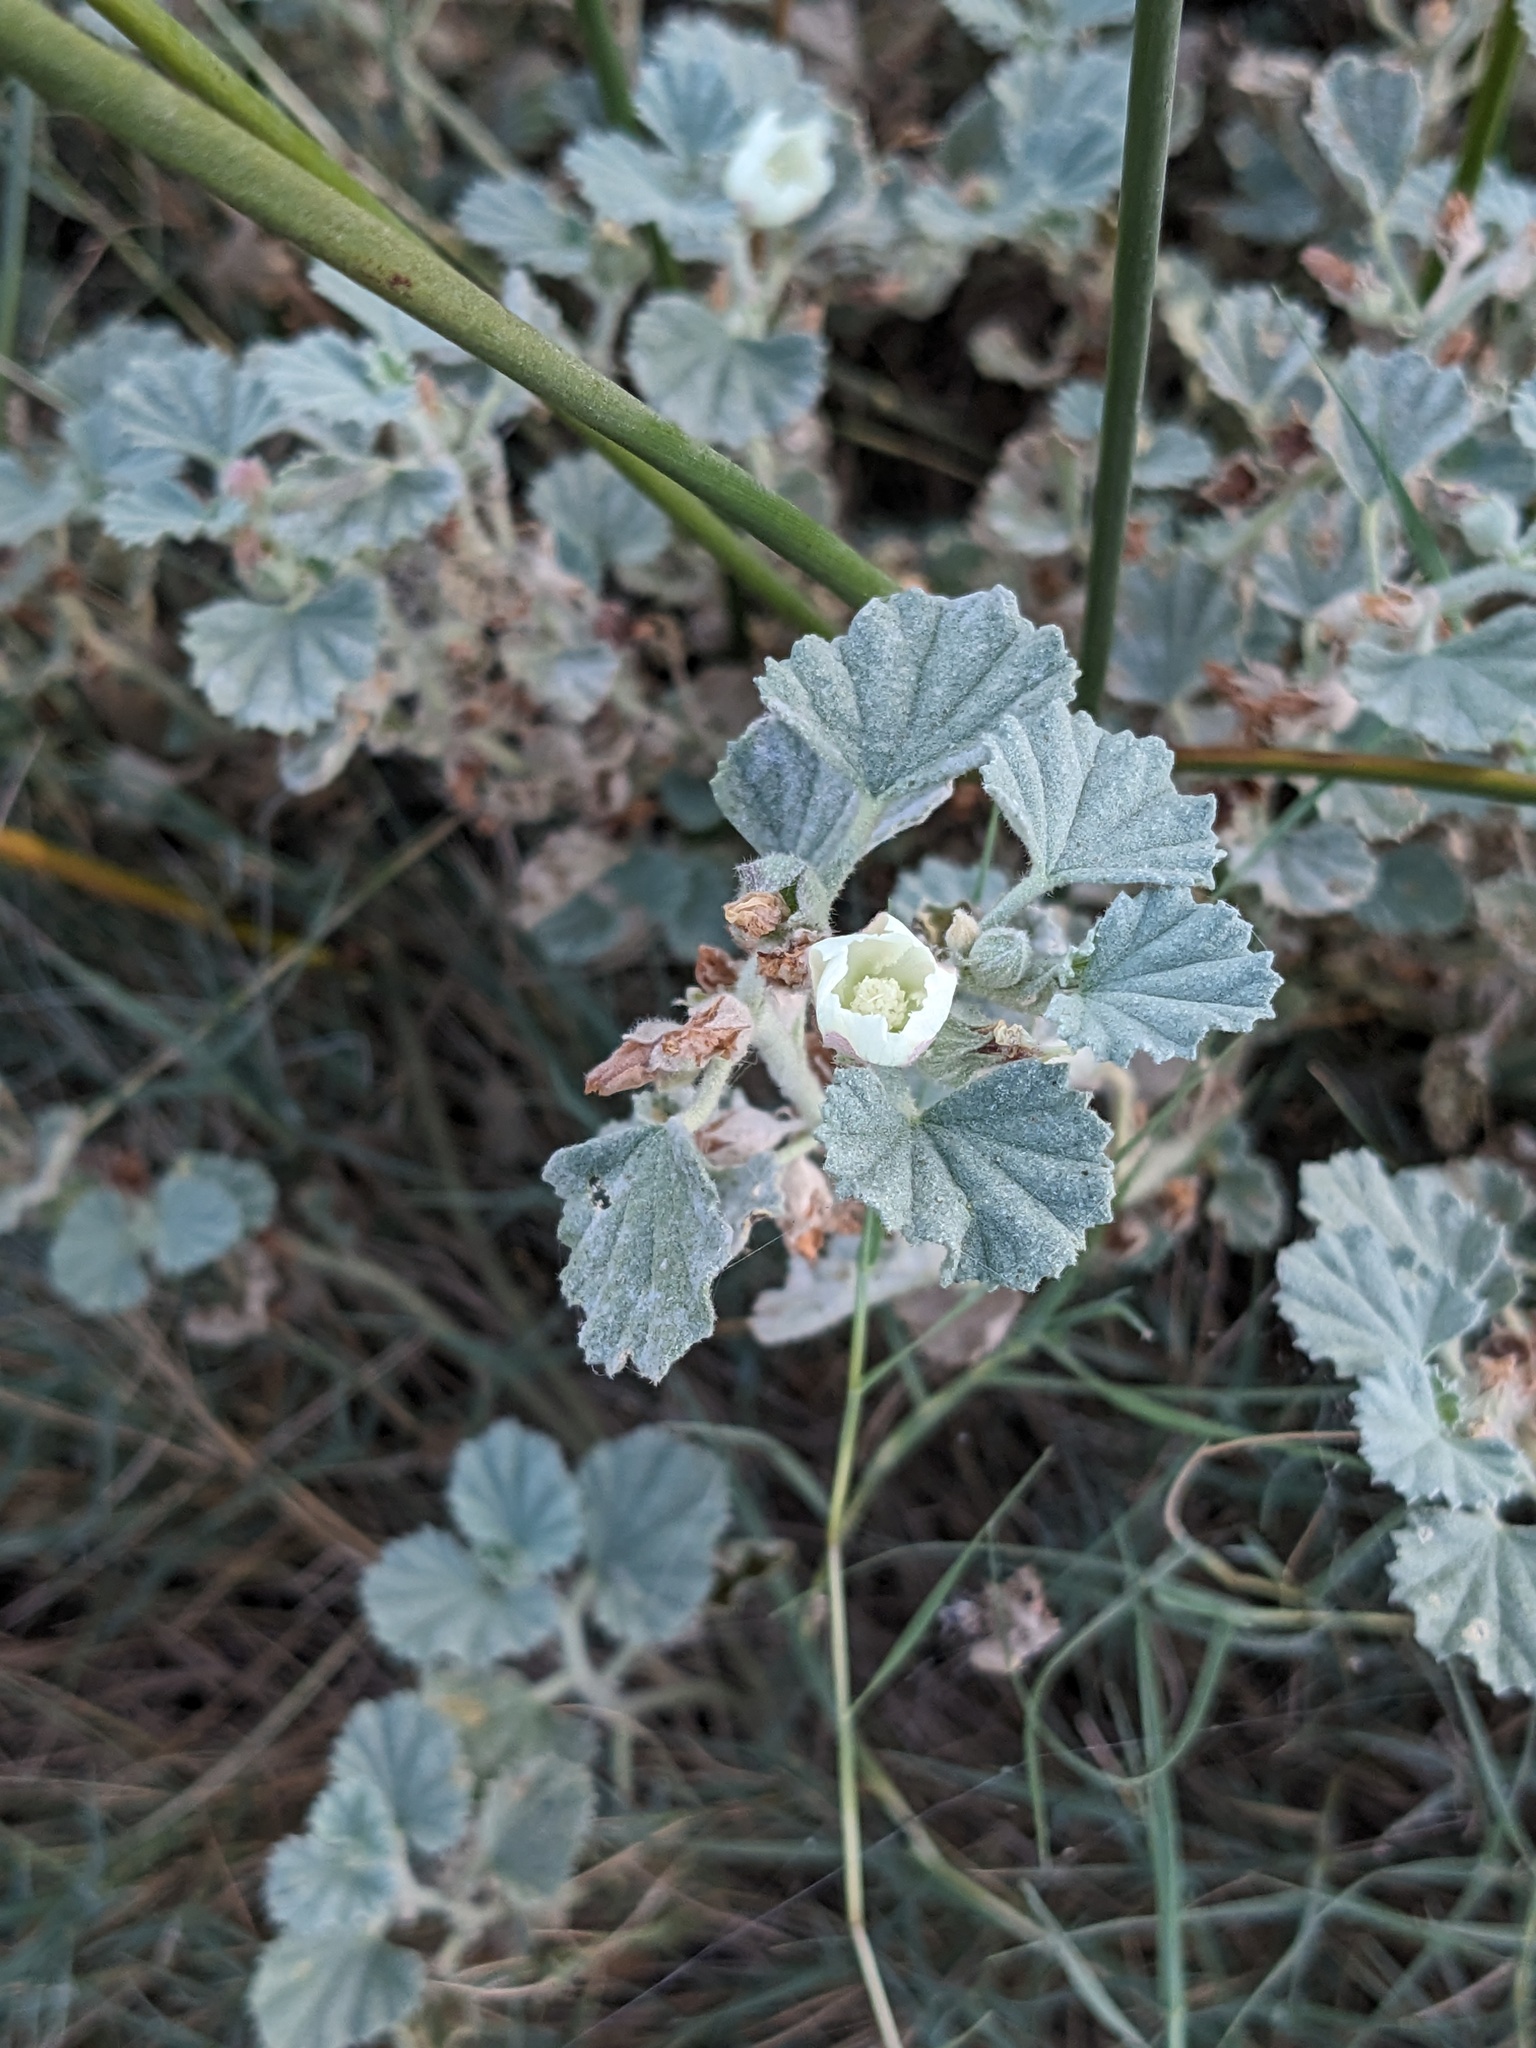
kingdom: Plantae
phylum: Tracheophyta
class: Magnoliopsida
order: Malvales
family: Malvaceae
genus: Malvella
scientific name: Malvella leprosa
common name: Alkali-mallow
